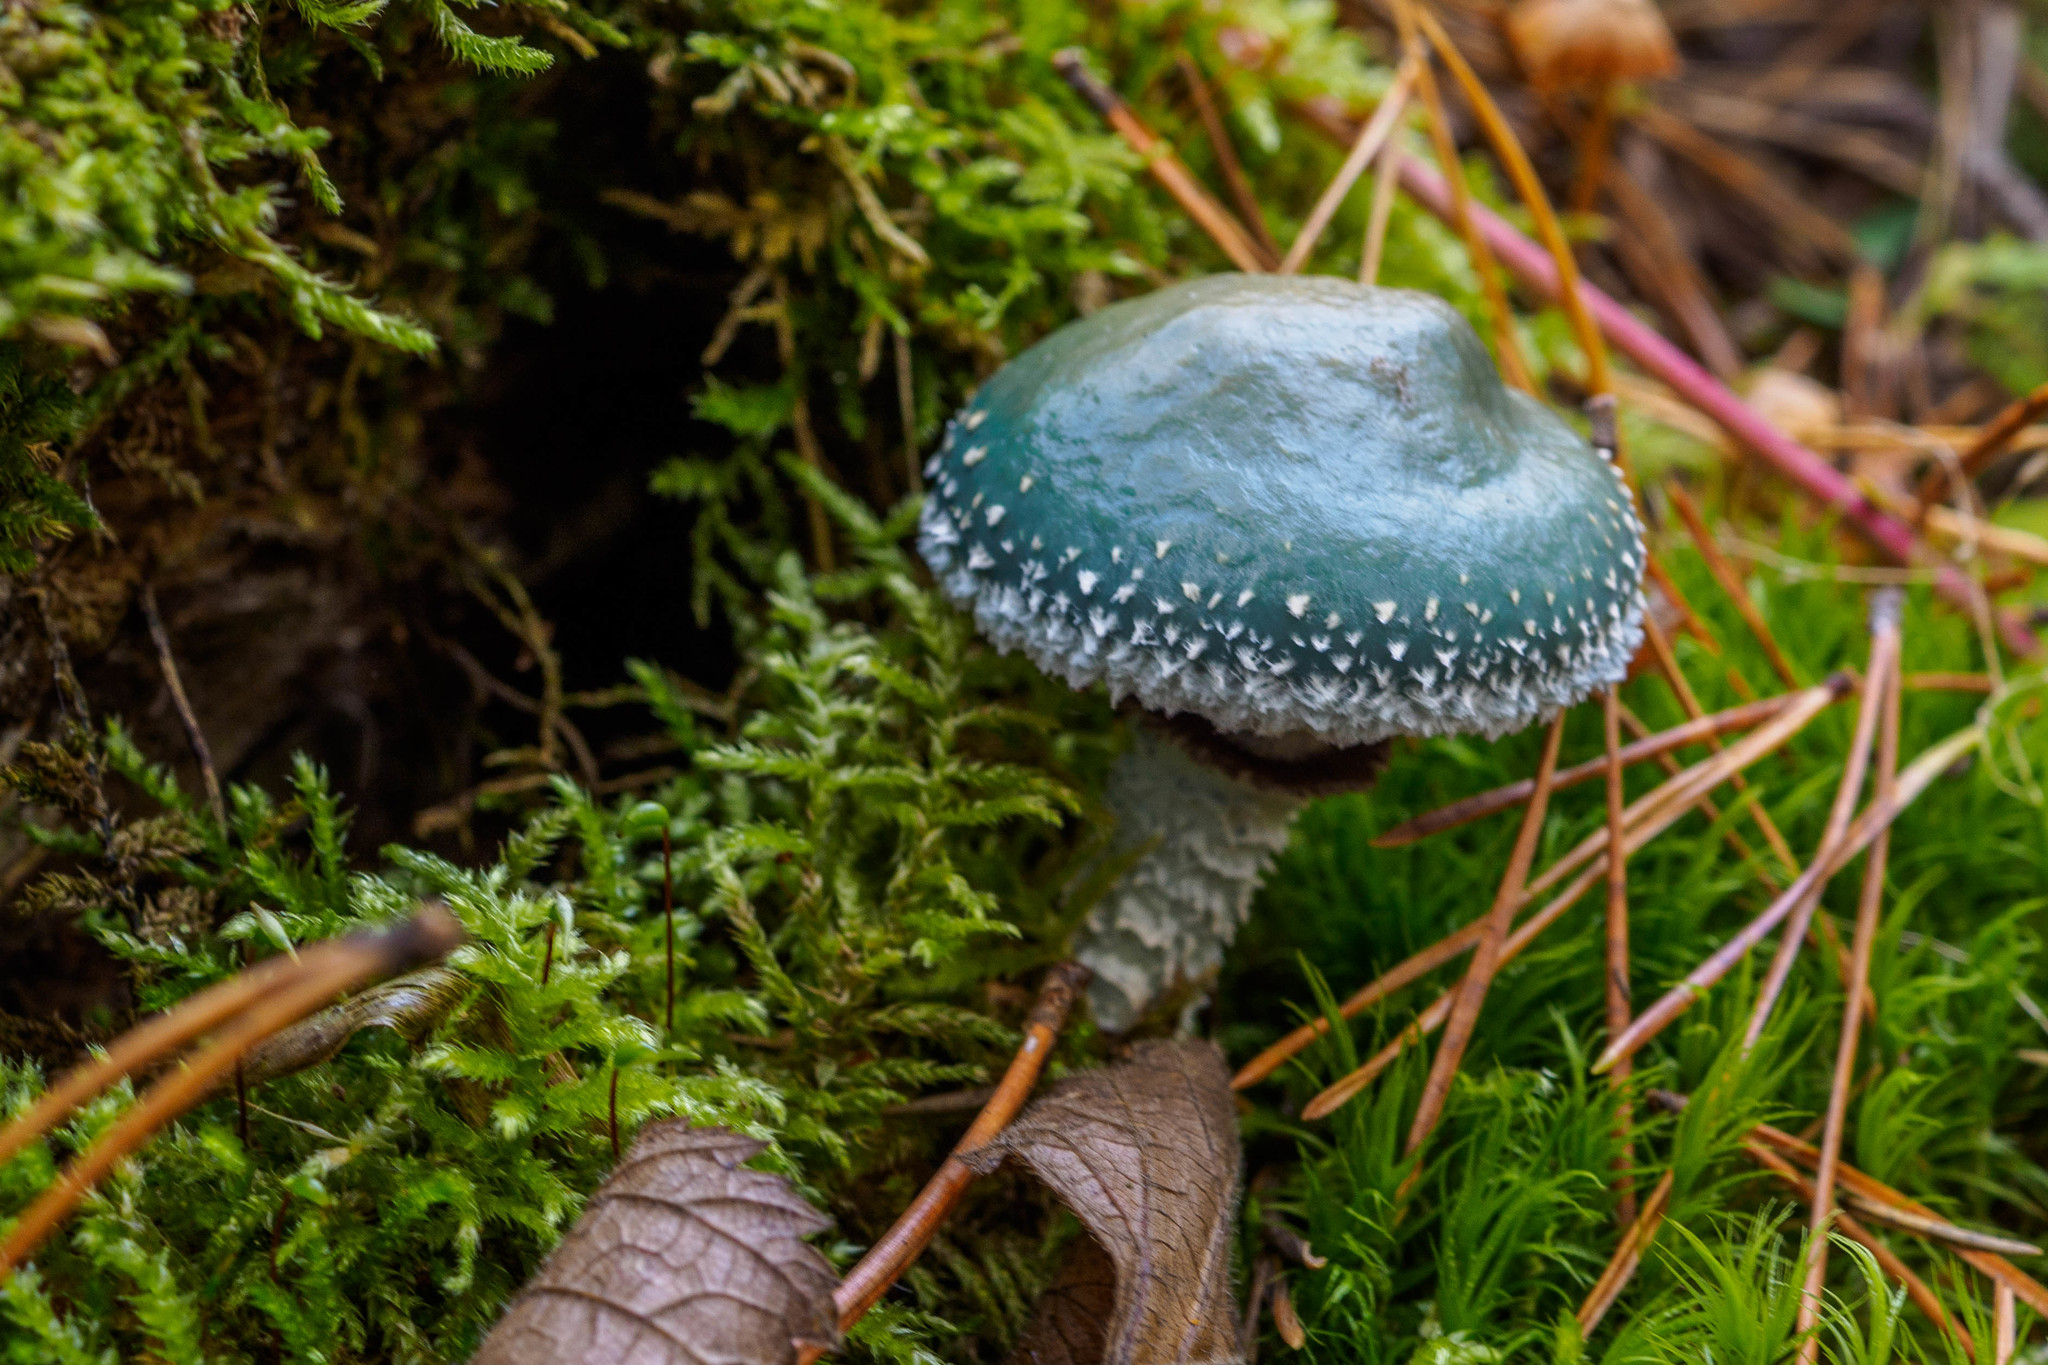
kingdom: Fungi
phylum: Basidiomycota
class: Agaricomycetes
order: Agaricales
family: Strophariaceae
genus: Stropharia
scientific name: Stropharia aeruginosa
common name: Verdigris roundhead
